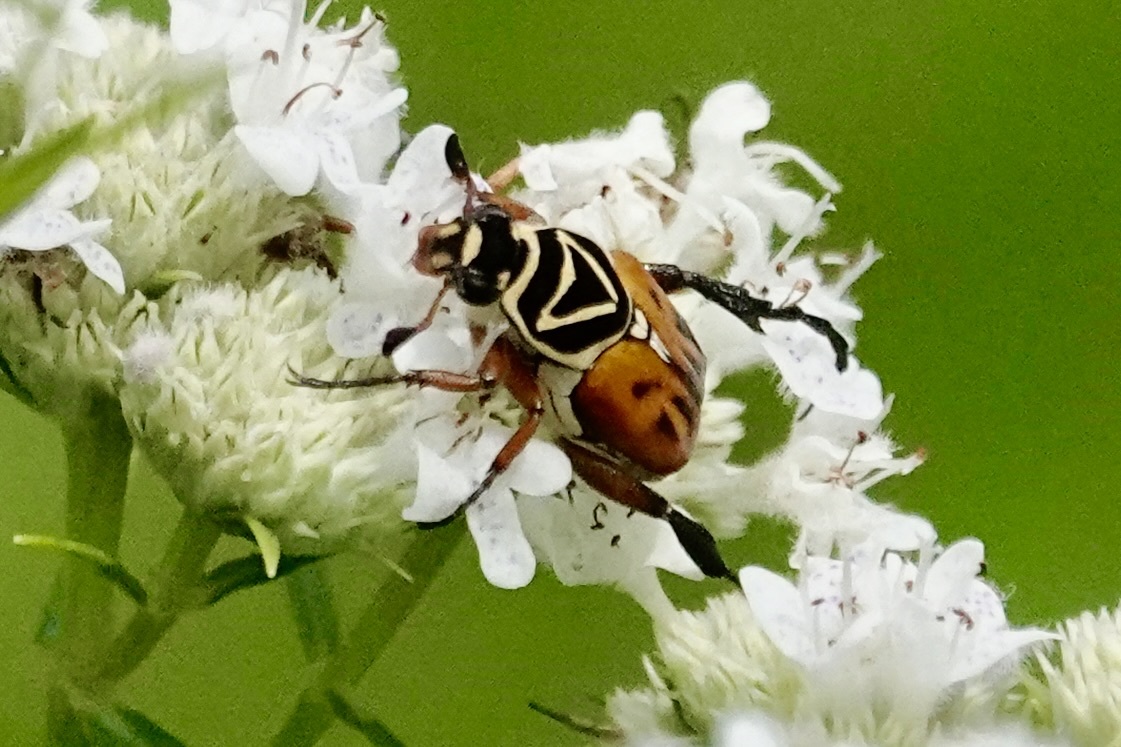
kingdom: Animalia
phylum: Arthropoda
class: Insecta
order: Coleoptera
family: Scarabaeidae
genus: Trigonopeltastes
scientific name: Trigonopeltastes delta
